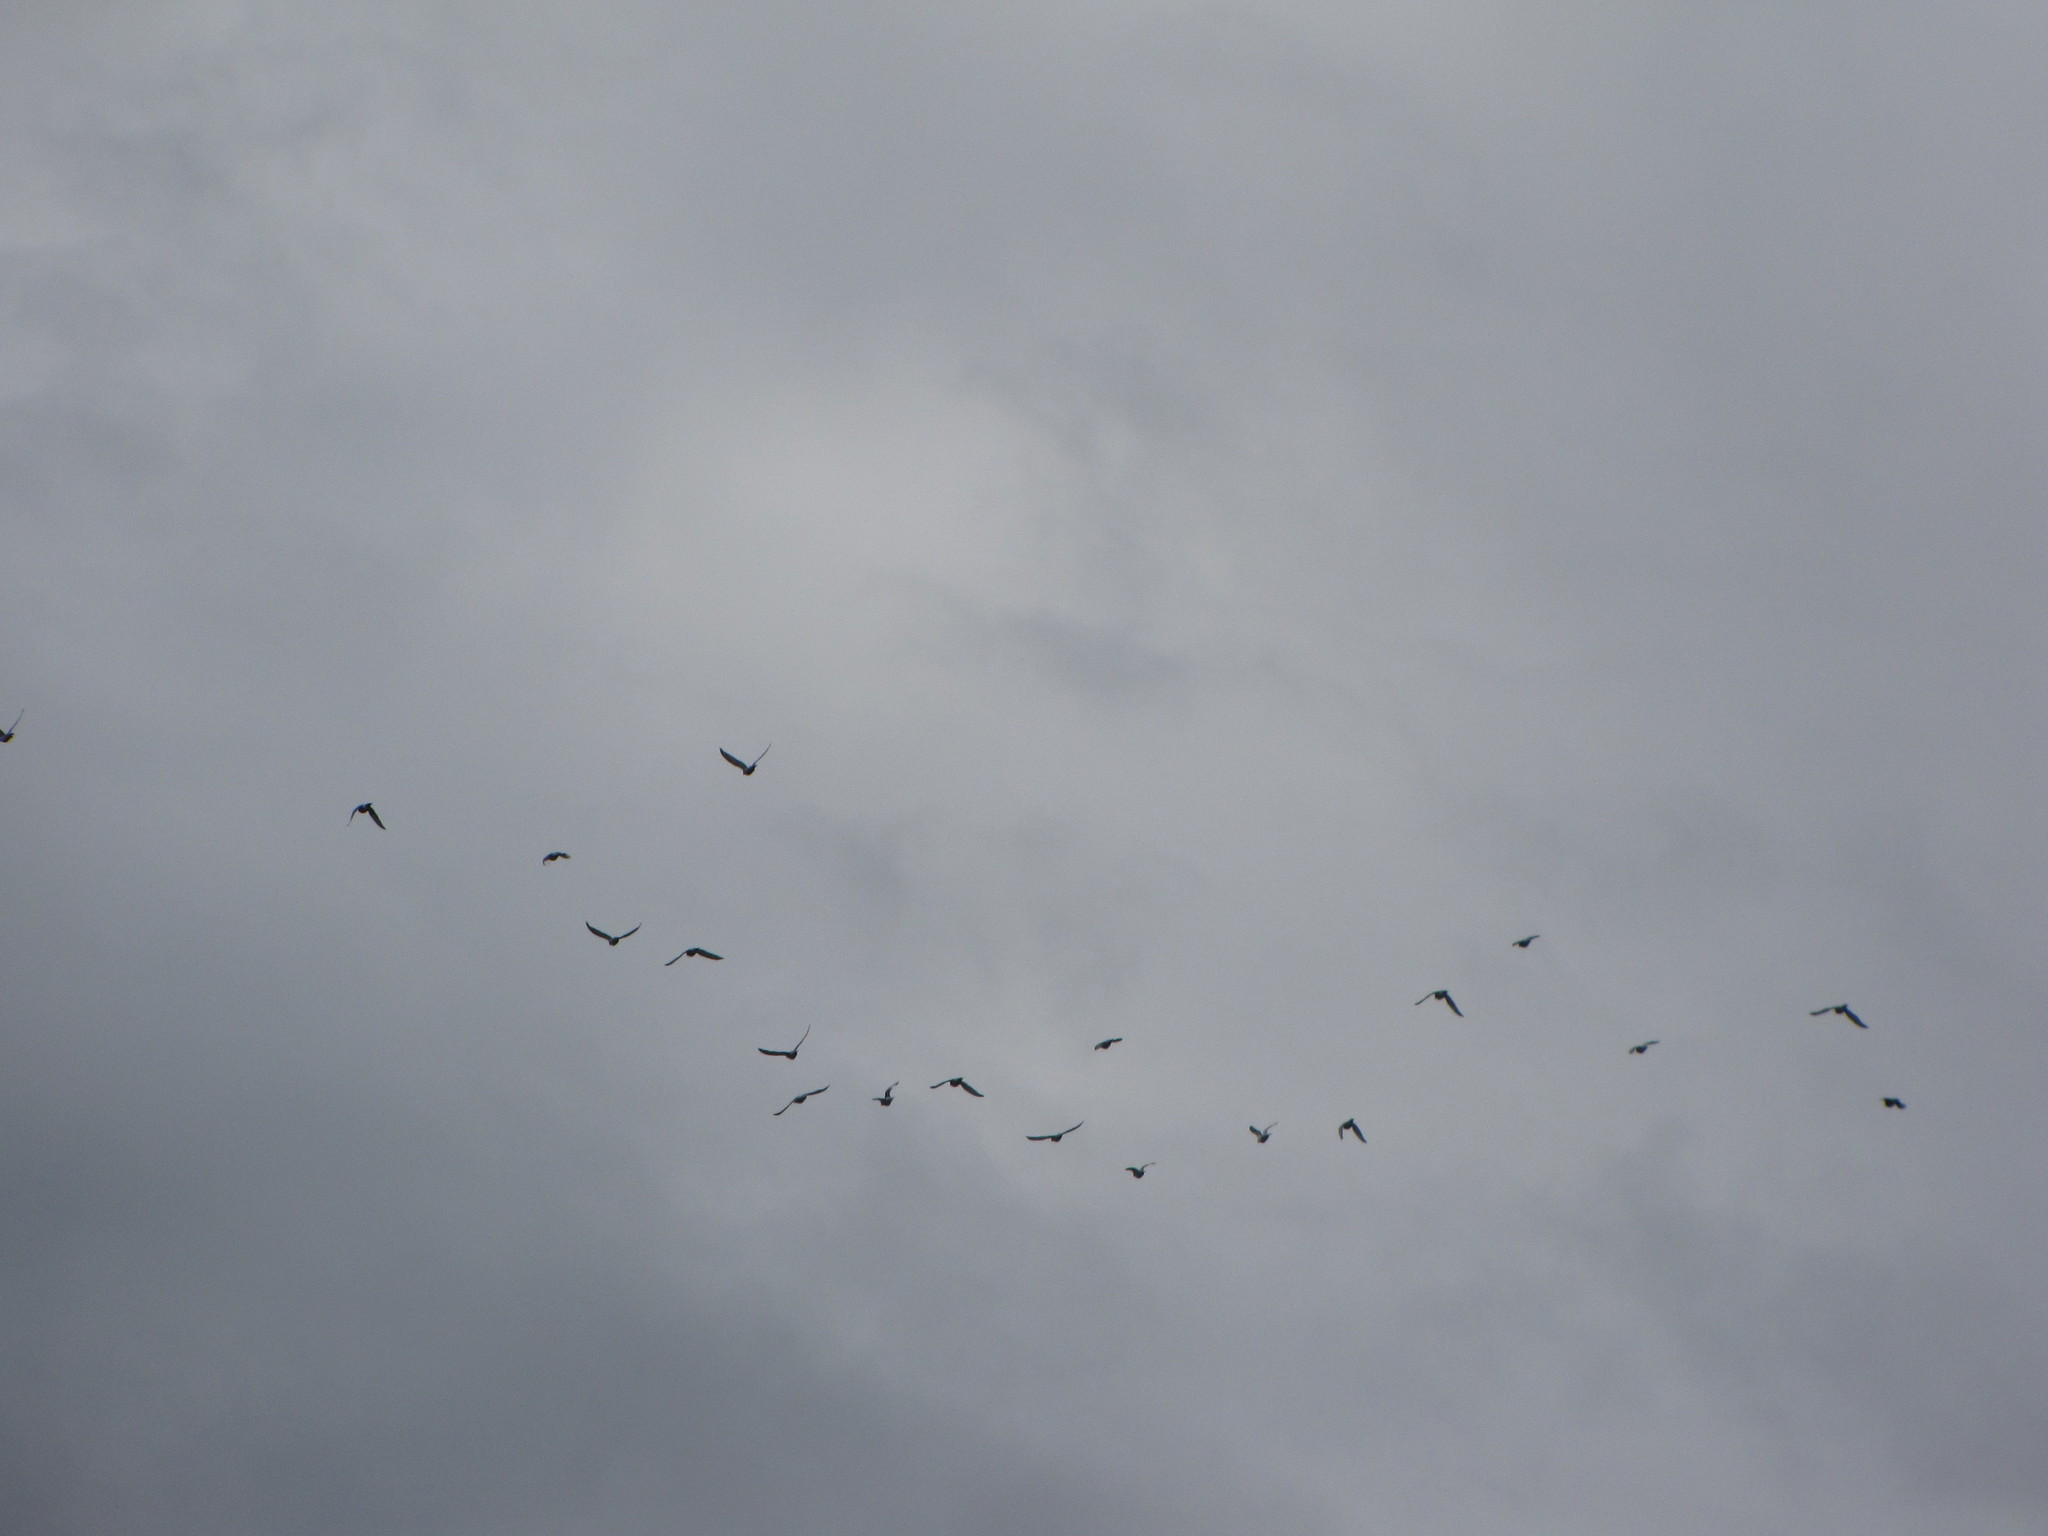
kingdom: Animalia
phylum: Chordata
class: Aves
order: Columbiformes
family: Columbidae
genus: Columba
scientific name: Columba livia
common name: Rock pigeon
